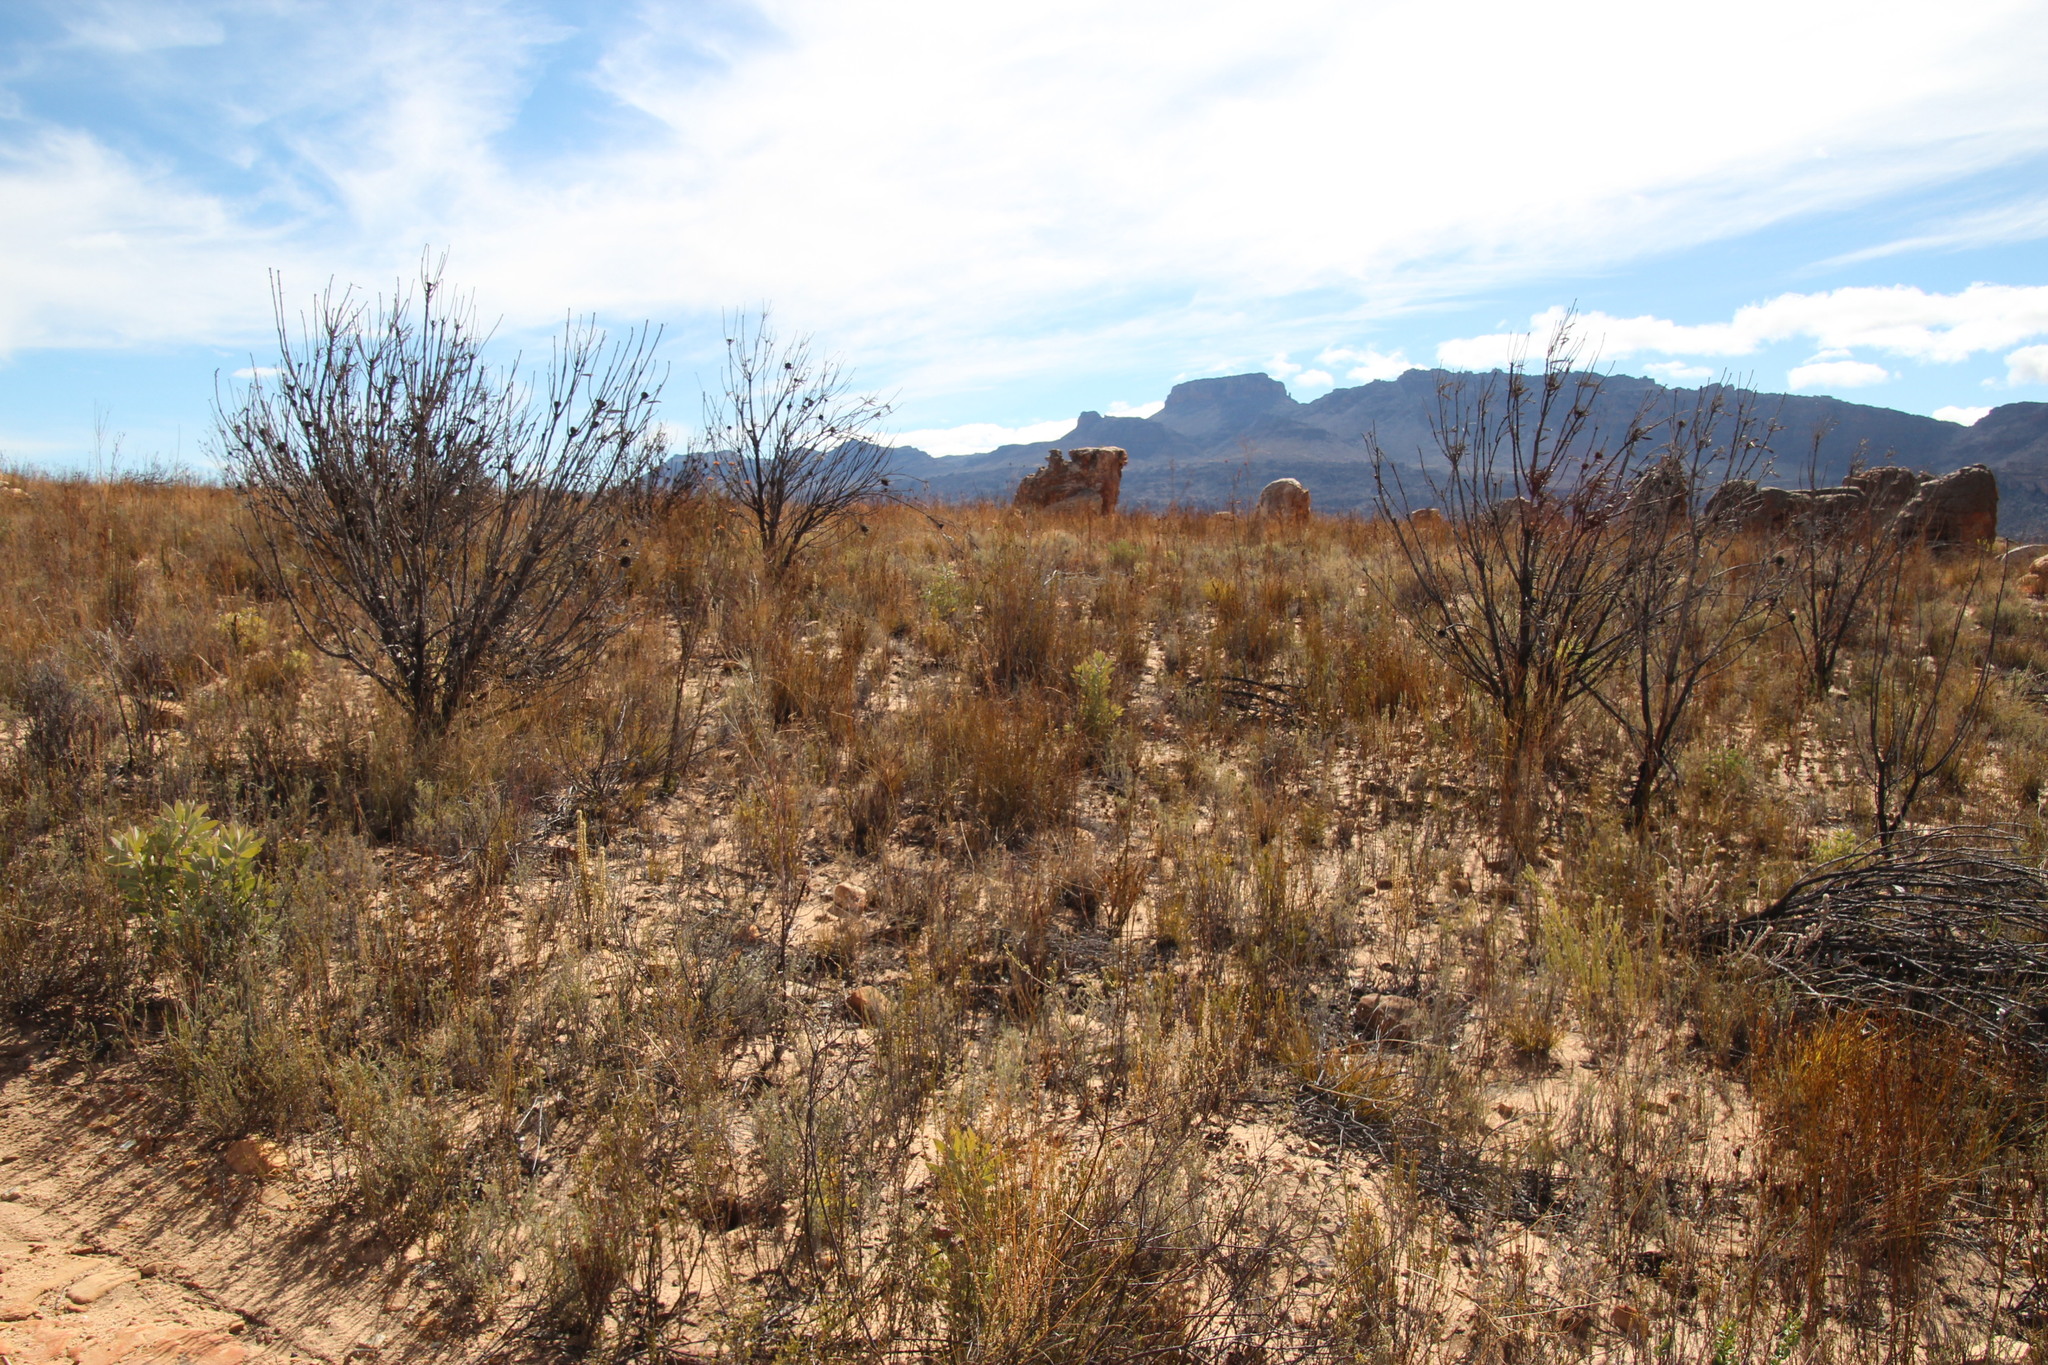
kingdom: Plantae
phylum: Tracheophyta
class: Magnoliopsida
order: Proteales
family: Proteaceae
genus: Protea
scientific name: Protea laurifolia
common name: Grey-leaf sugarbsh
